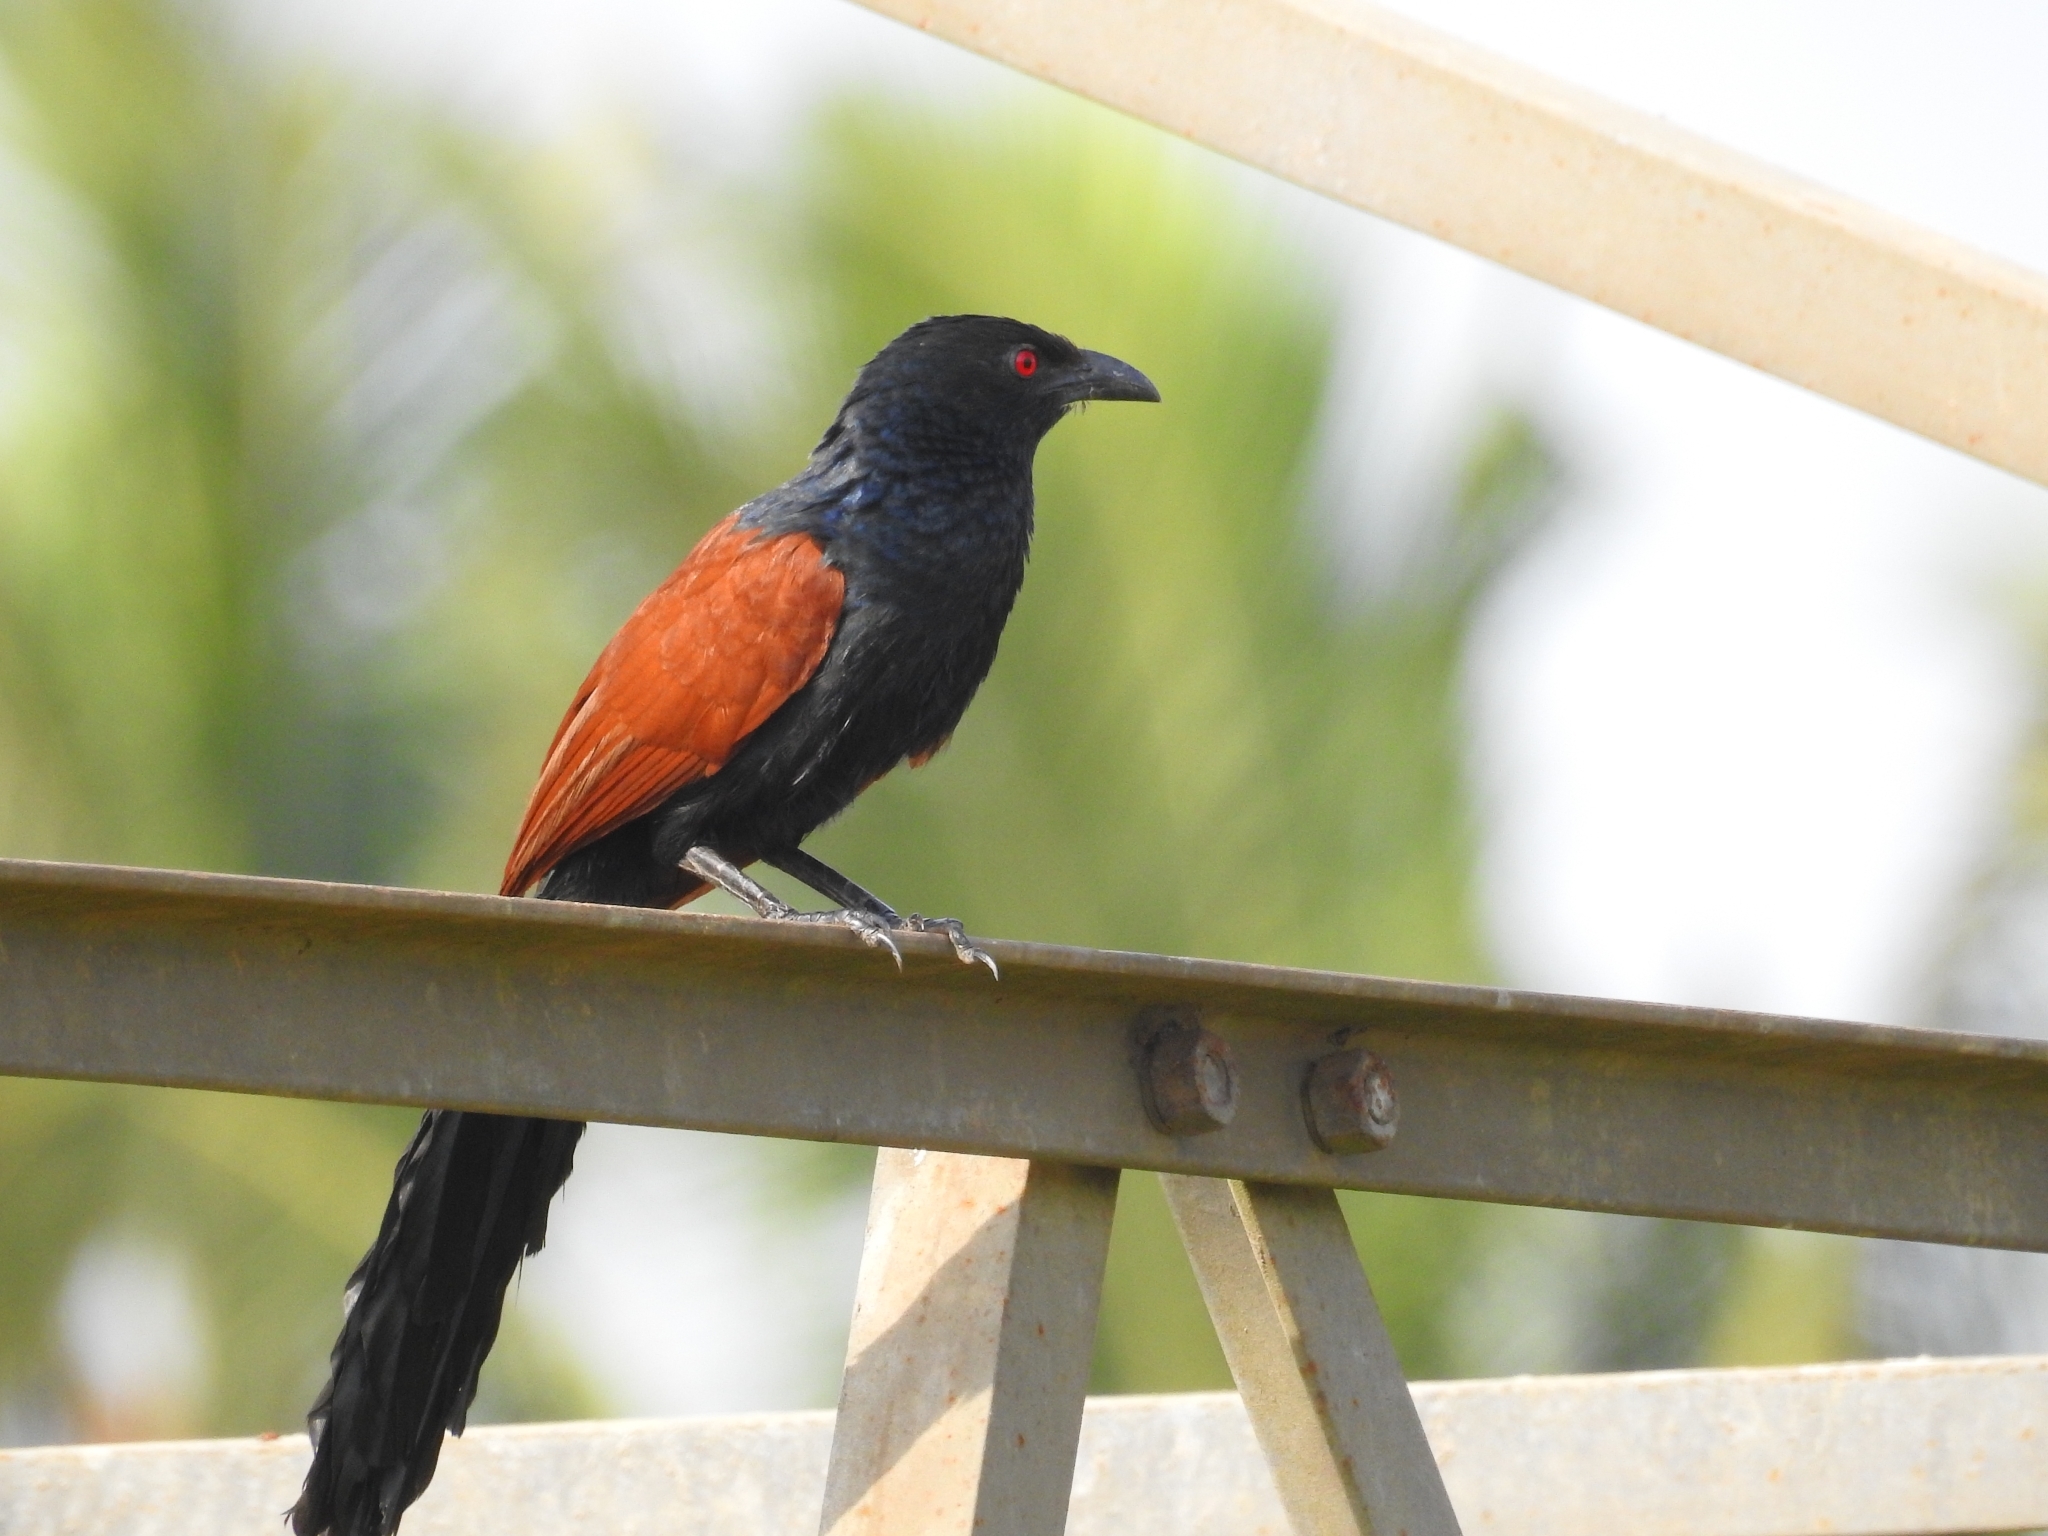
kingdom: Animalia
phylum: Chordata
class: Aves
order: Cuculiformes
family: Cuculidae
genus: Centropus
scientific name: Centropus sinensis
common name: Greater coucal
